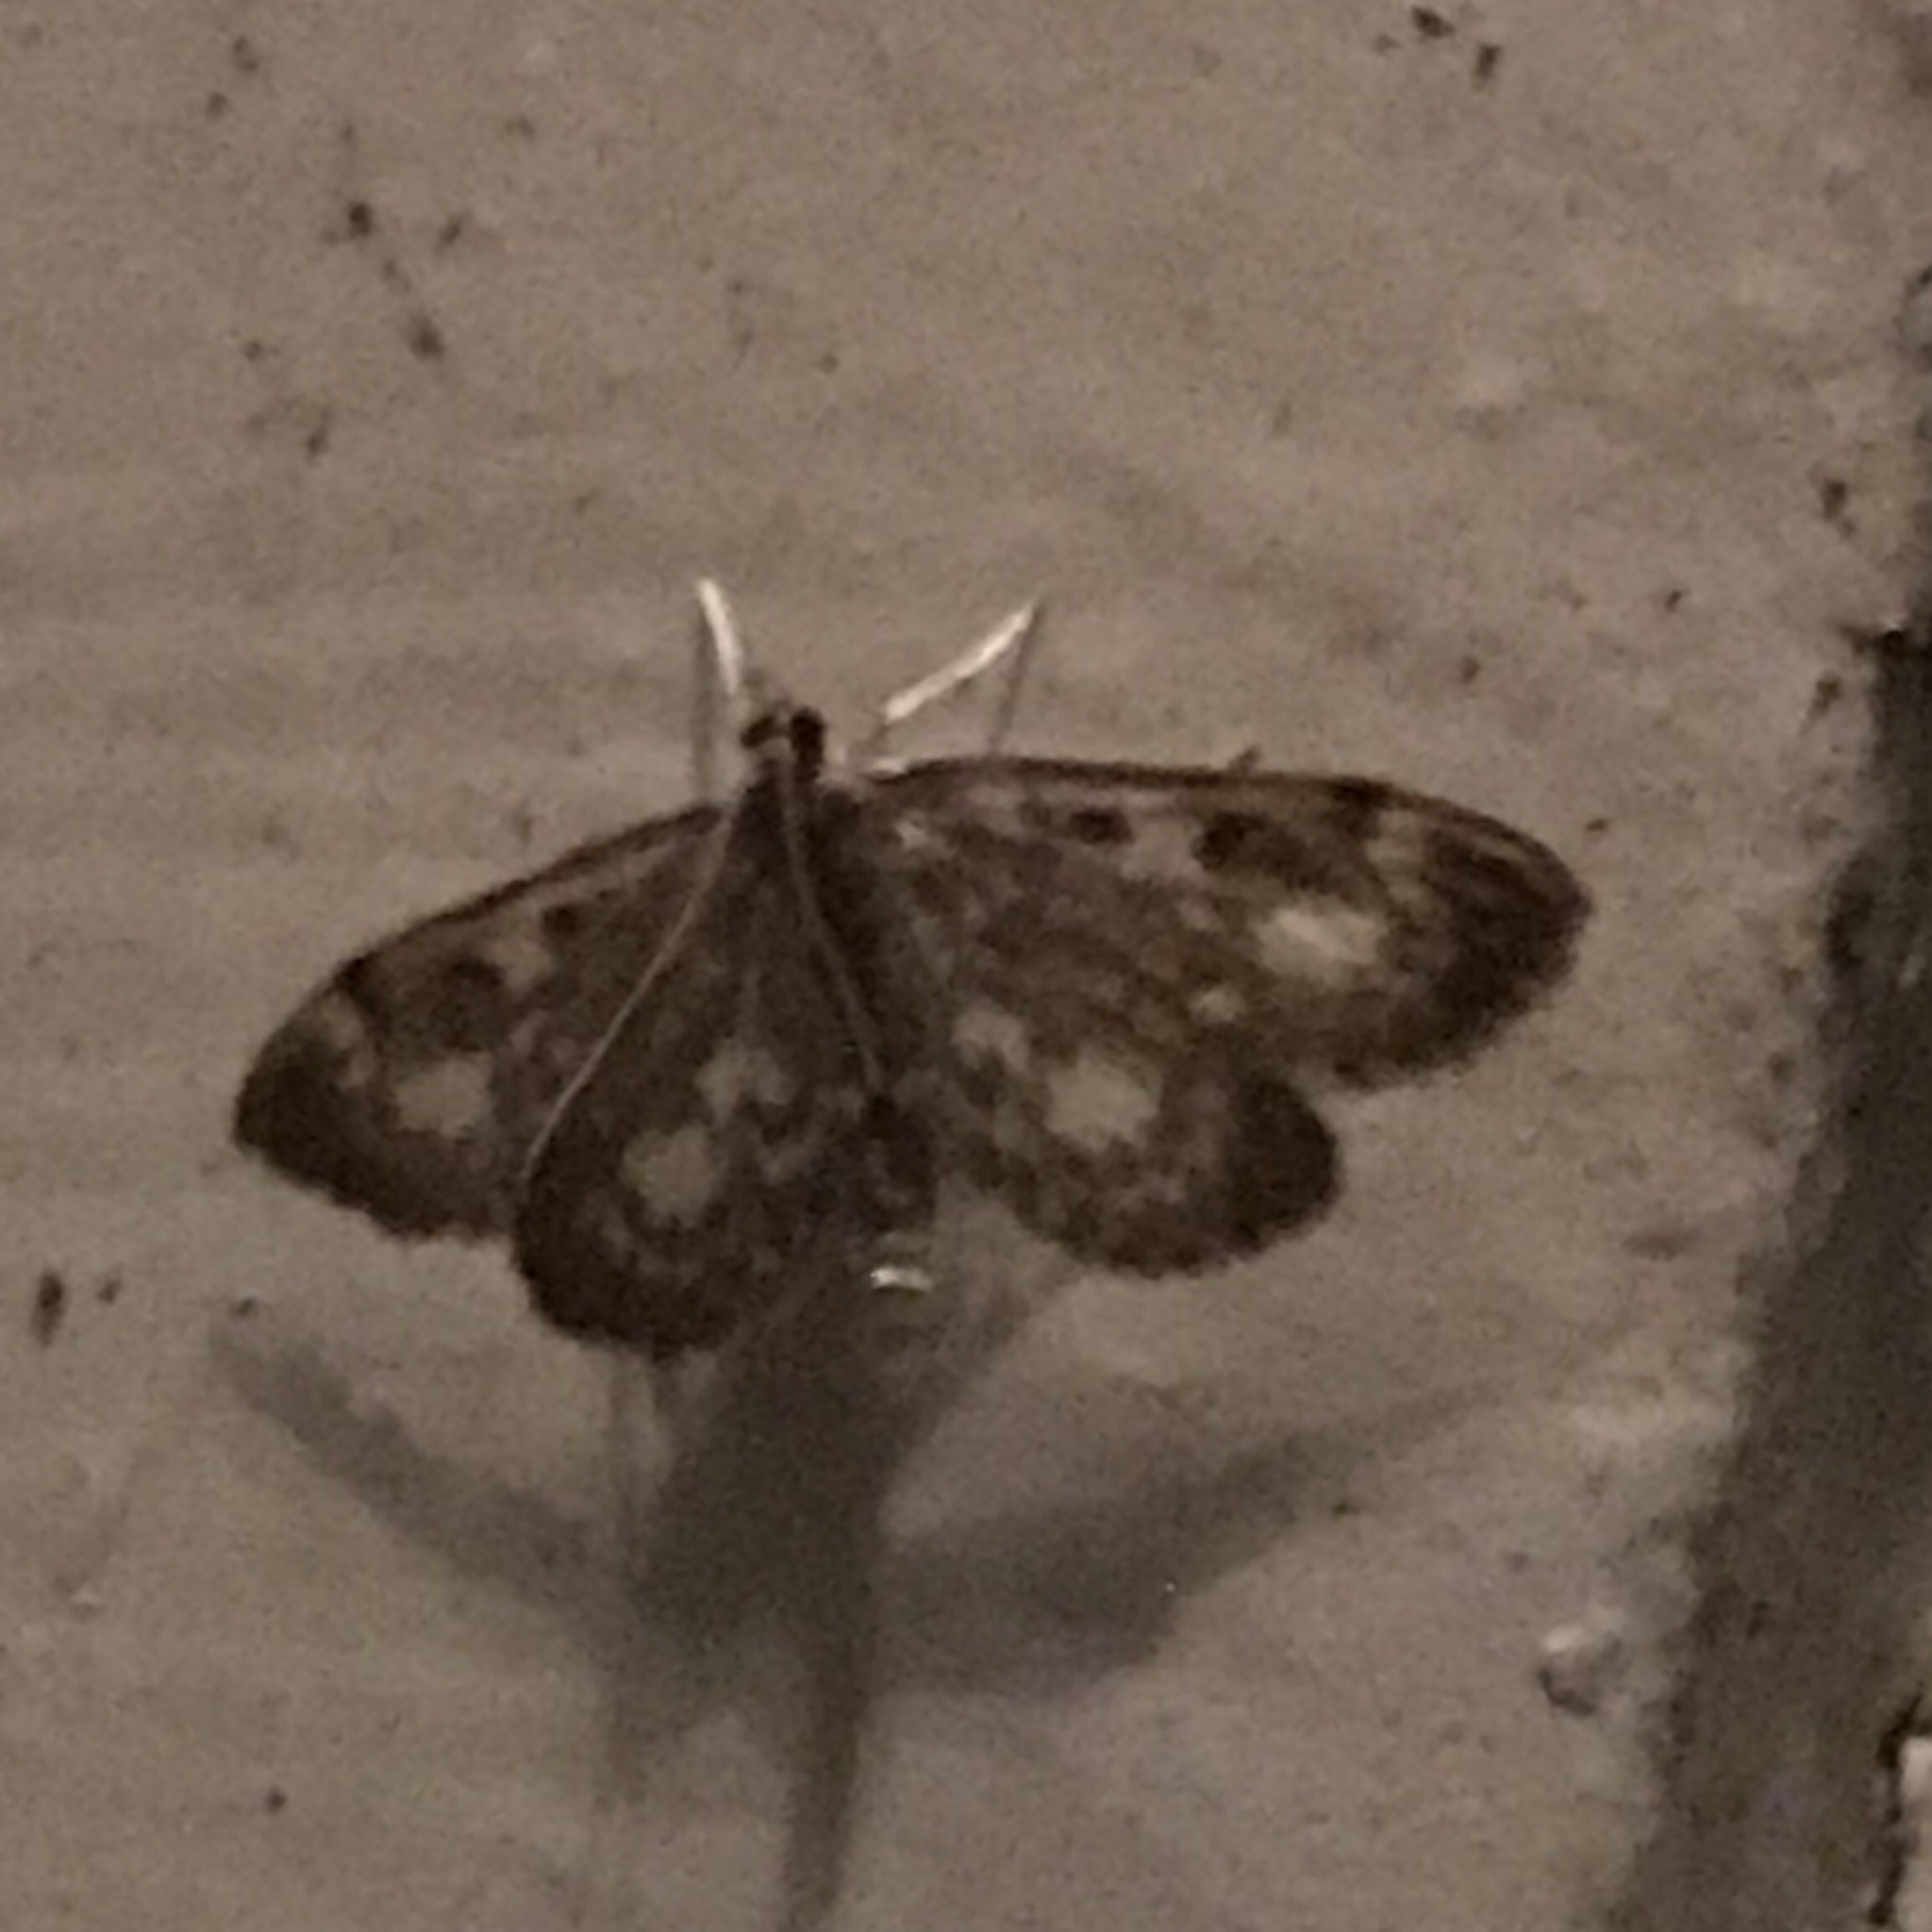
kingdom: Animalia
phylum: Arthropoda
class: Insecta
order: Lepidoptera
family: Crambidae
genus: Anania
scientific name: Anania
